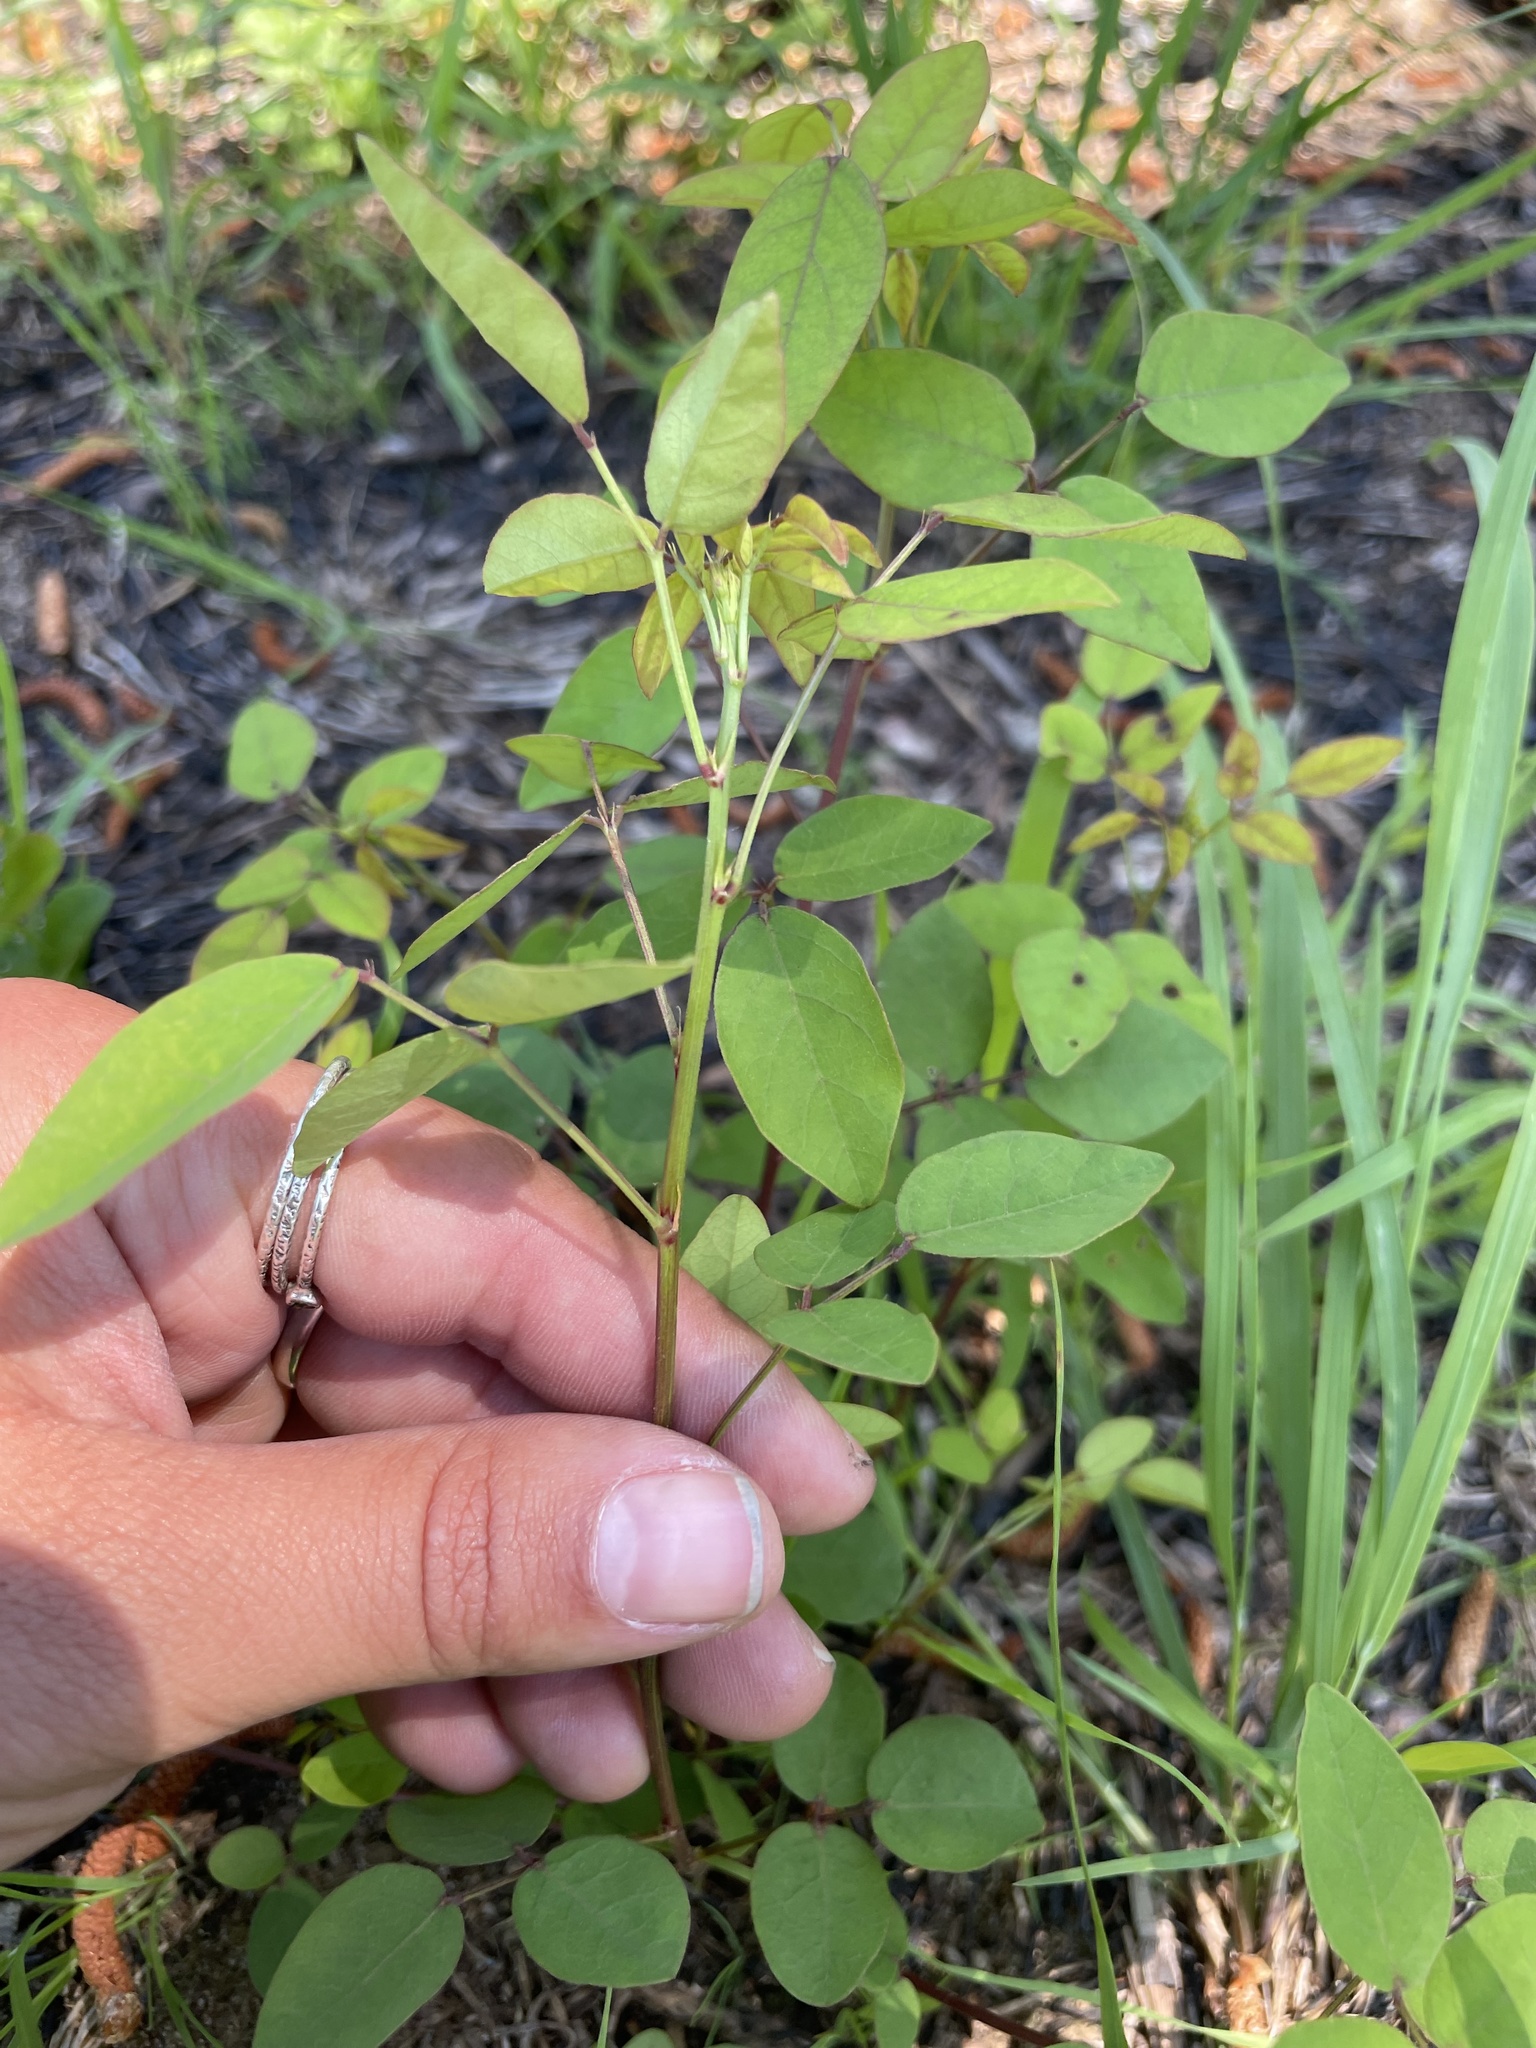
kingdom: Plantae
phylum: Tracheophyta
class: Magnoliopsida
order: Fabales
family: Fabaceae
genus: Desmodium
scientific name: Desmodium marilandicum
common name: Maryland tick-trefoil
